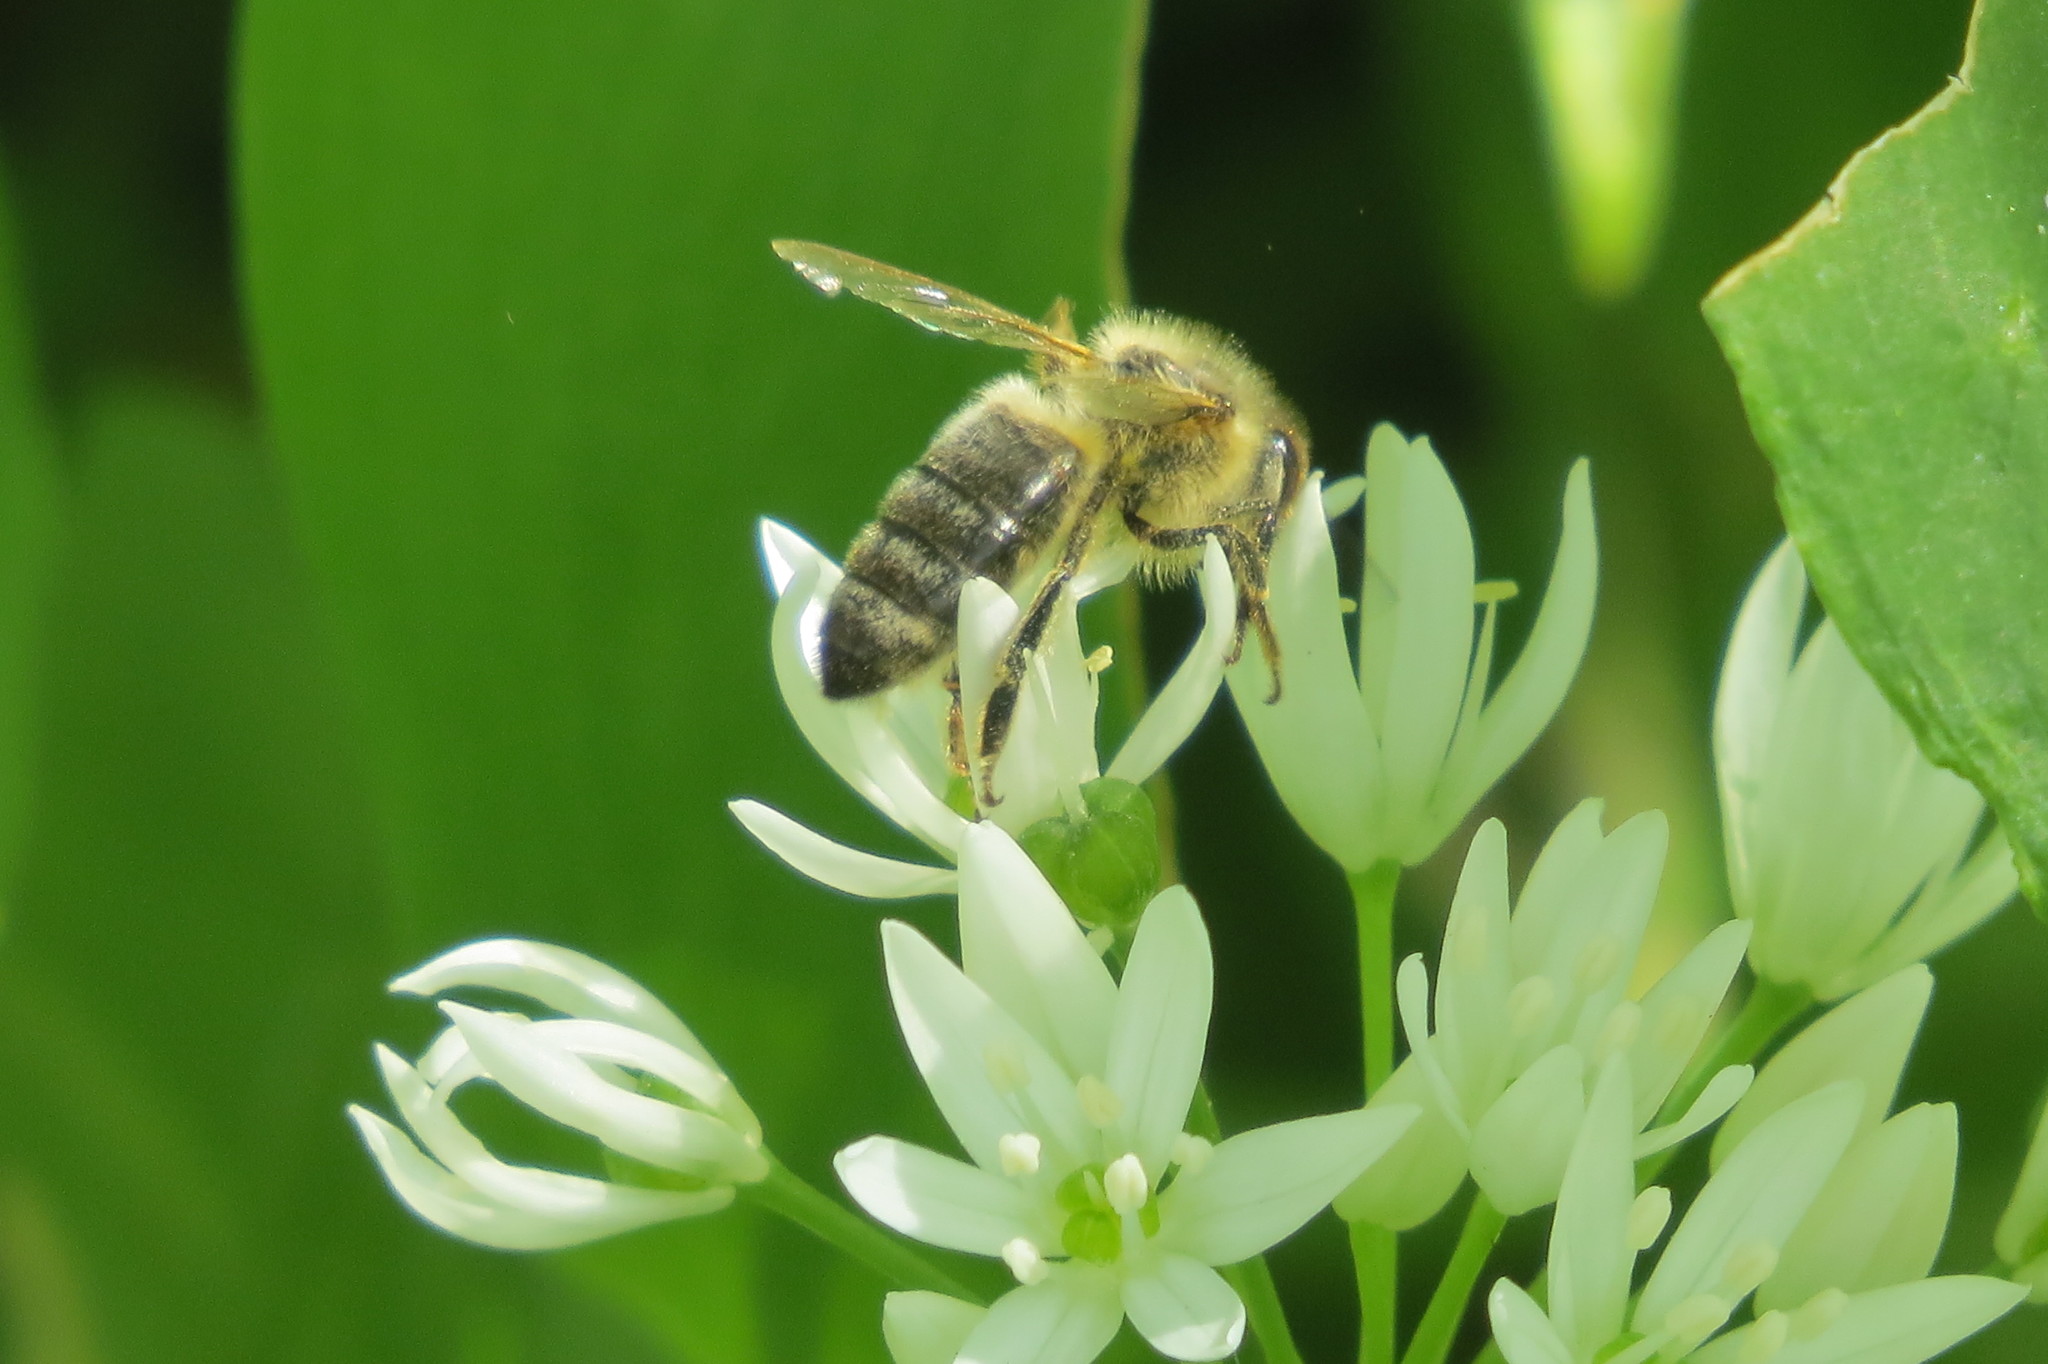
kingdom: Animalia
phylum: Arthropoda
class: Insecta
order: Hymenoptera
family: Apidae
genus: Apis
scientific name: Apis mellifera
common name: Honey bee
